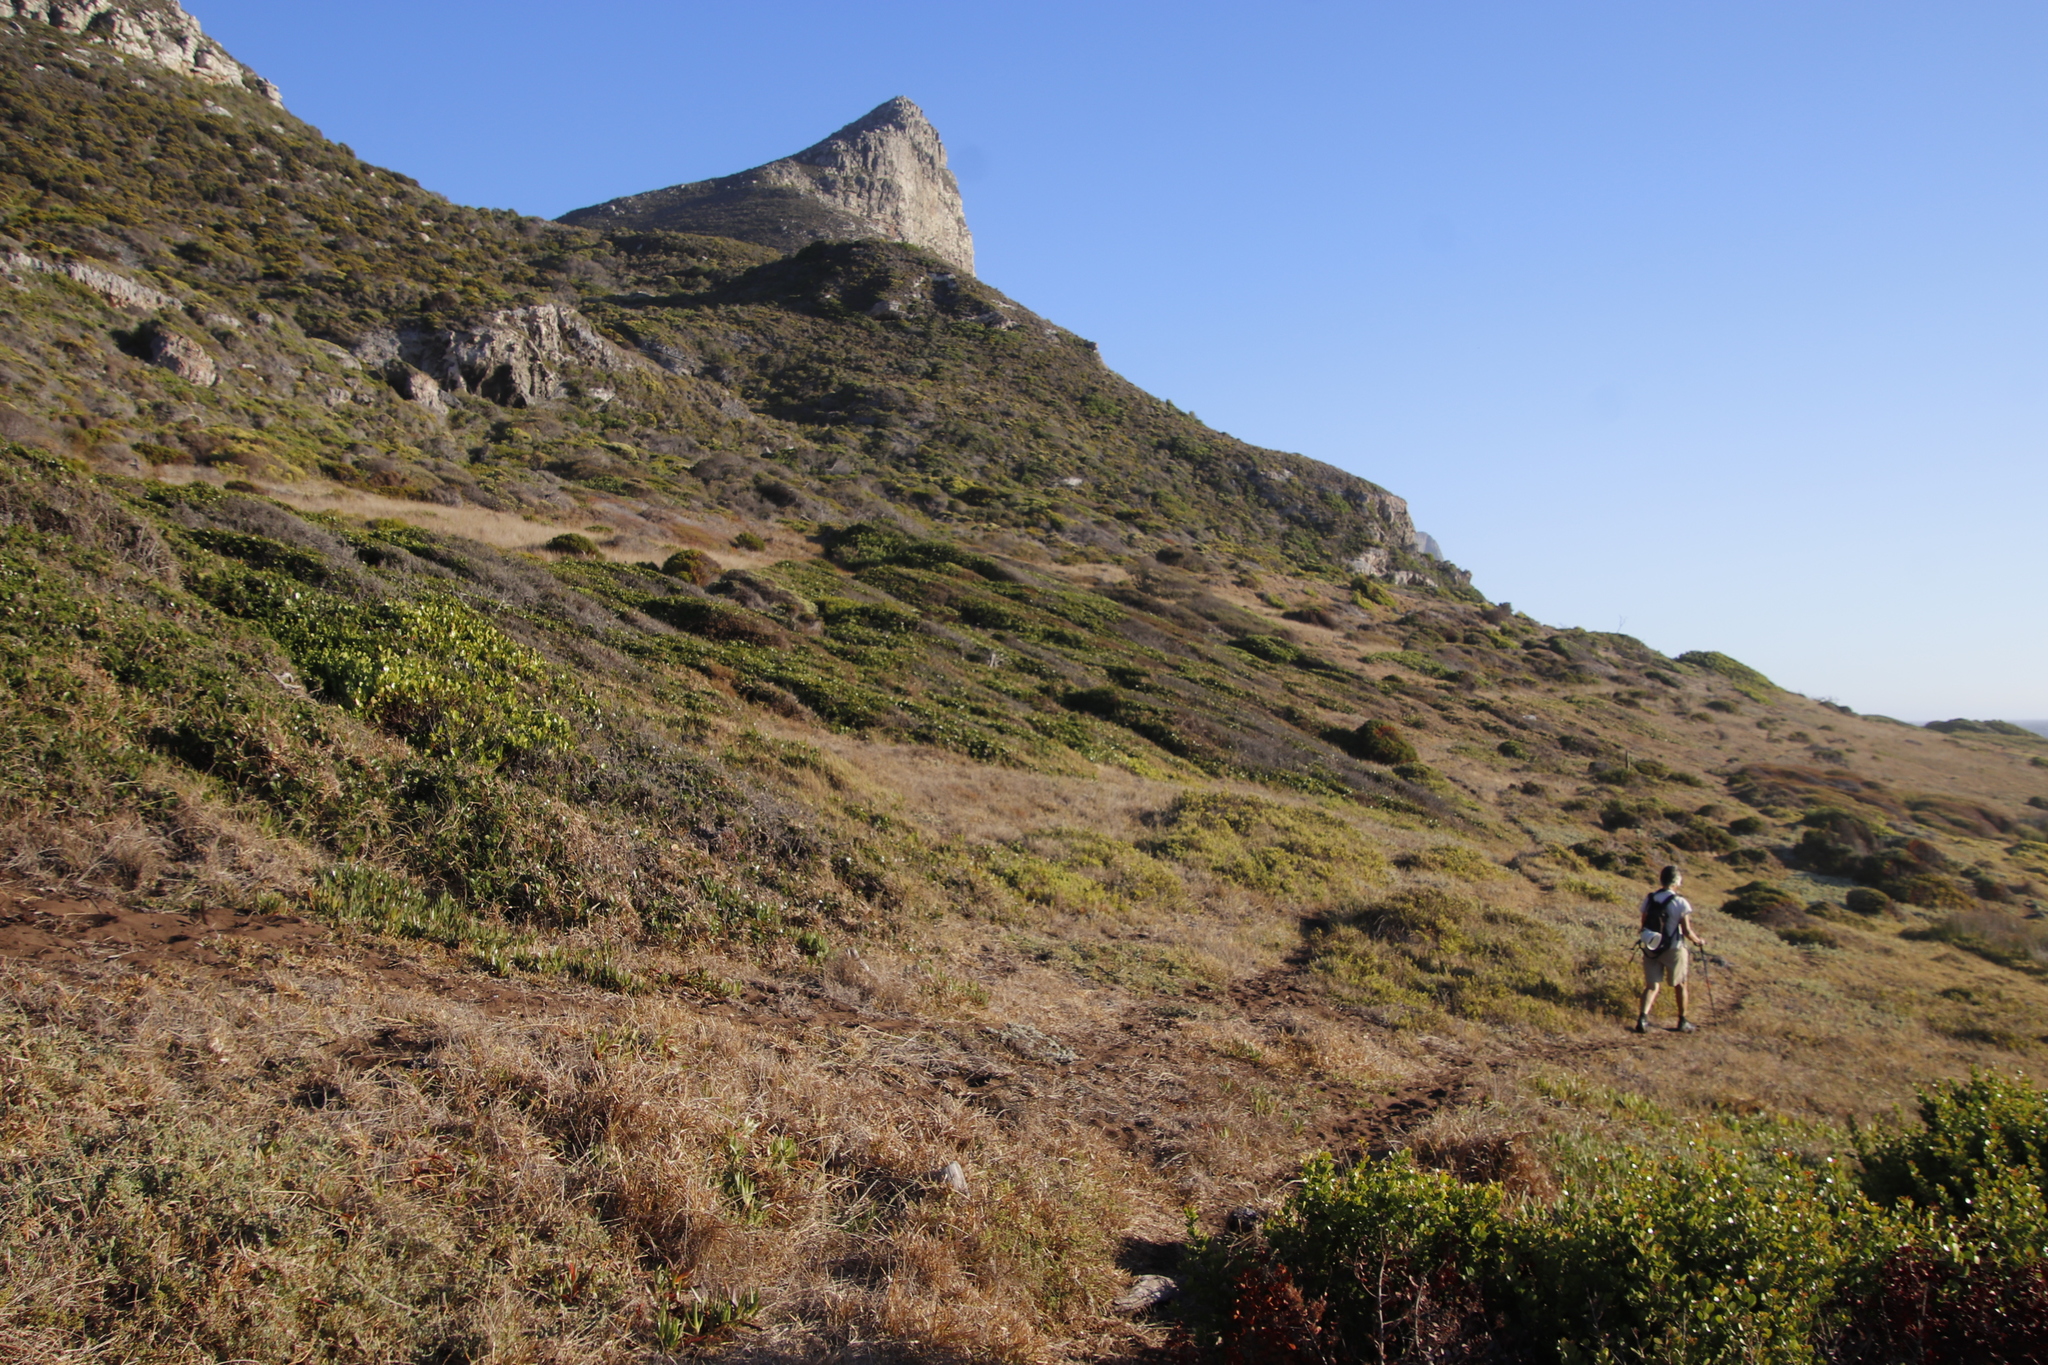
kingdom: Plantae
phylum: Tracheophyta
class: Magnoliopsida
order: Celastrales
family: Celastraceae
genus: Pterocelastrus
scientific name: Pterocelastrus tricuspidatus
